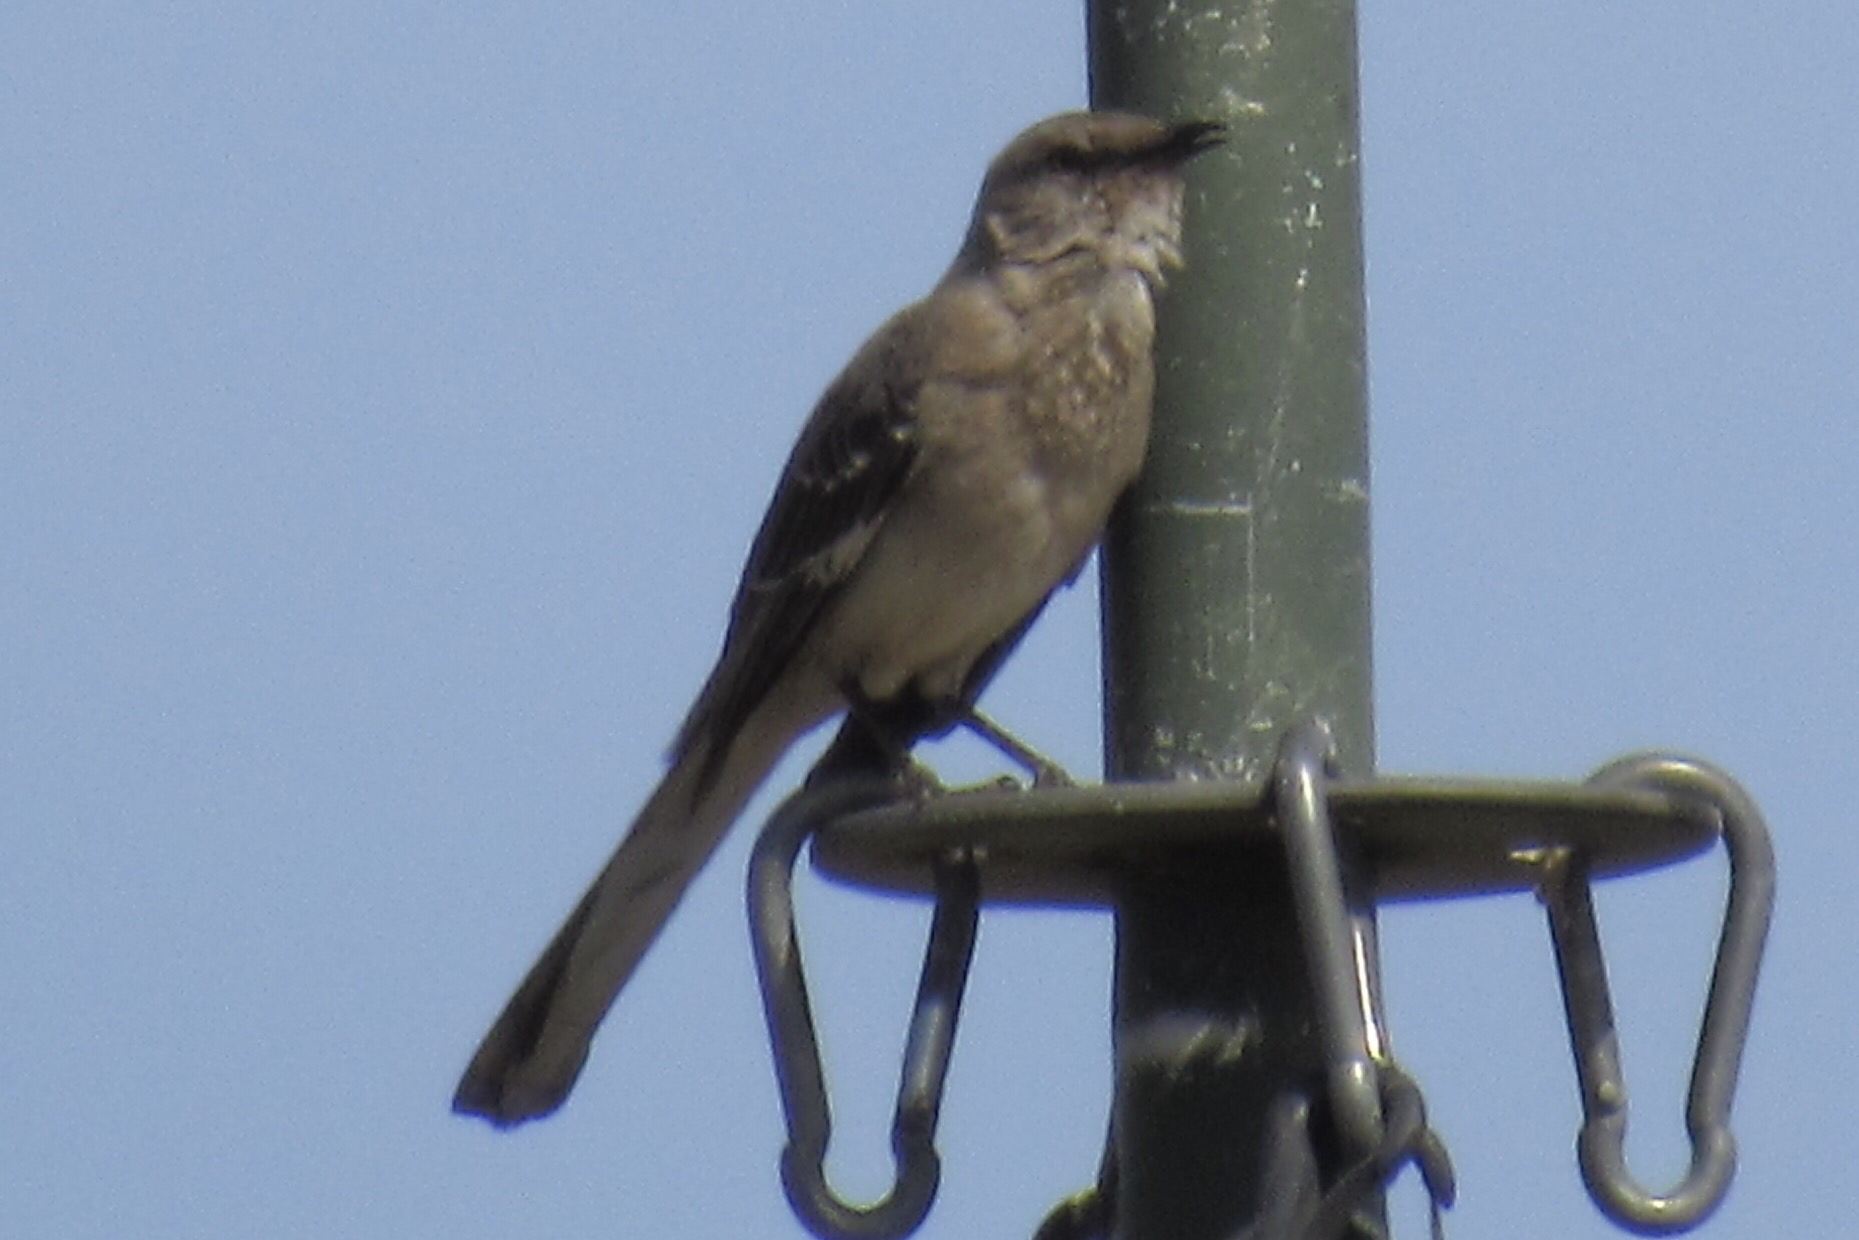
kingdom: Animalia
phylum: Chordata
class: Aves
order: Passeriformes
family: Mimidae
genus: Mimus
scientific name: Mimus polyglottos
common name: Northern mockingbird
